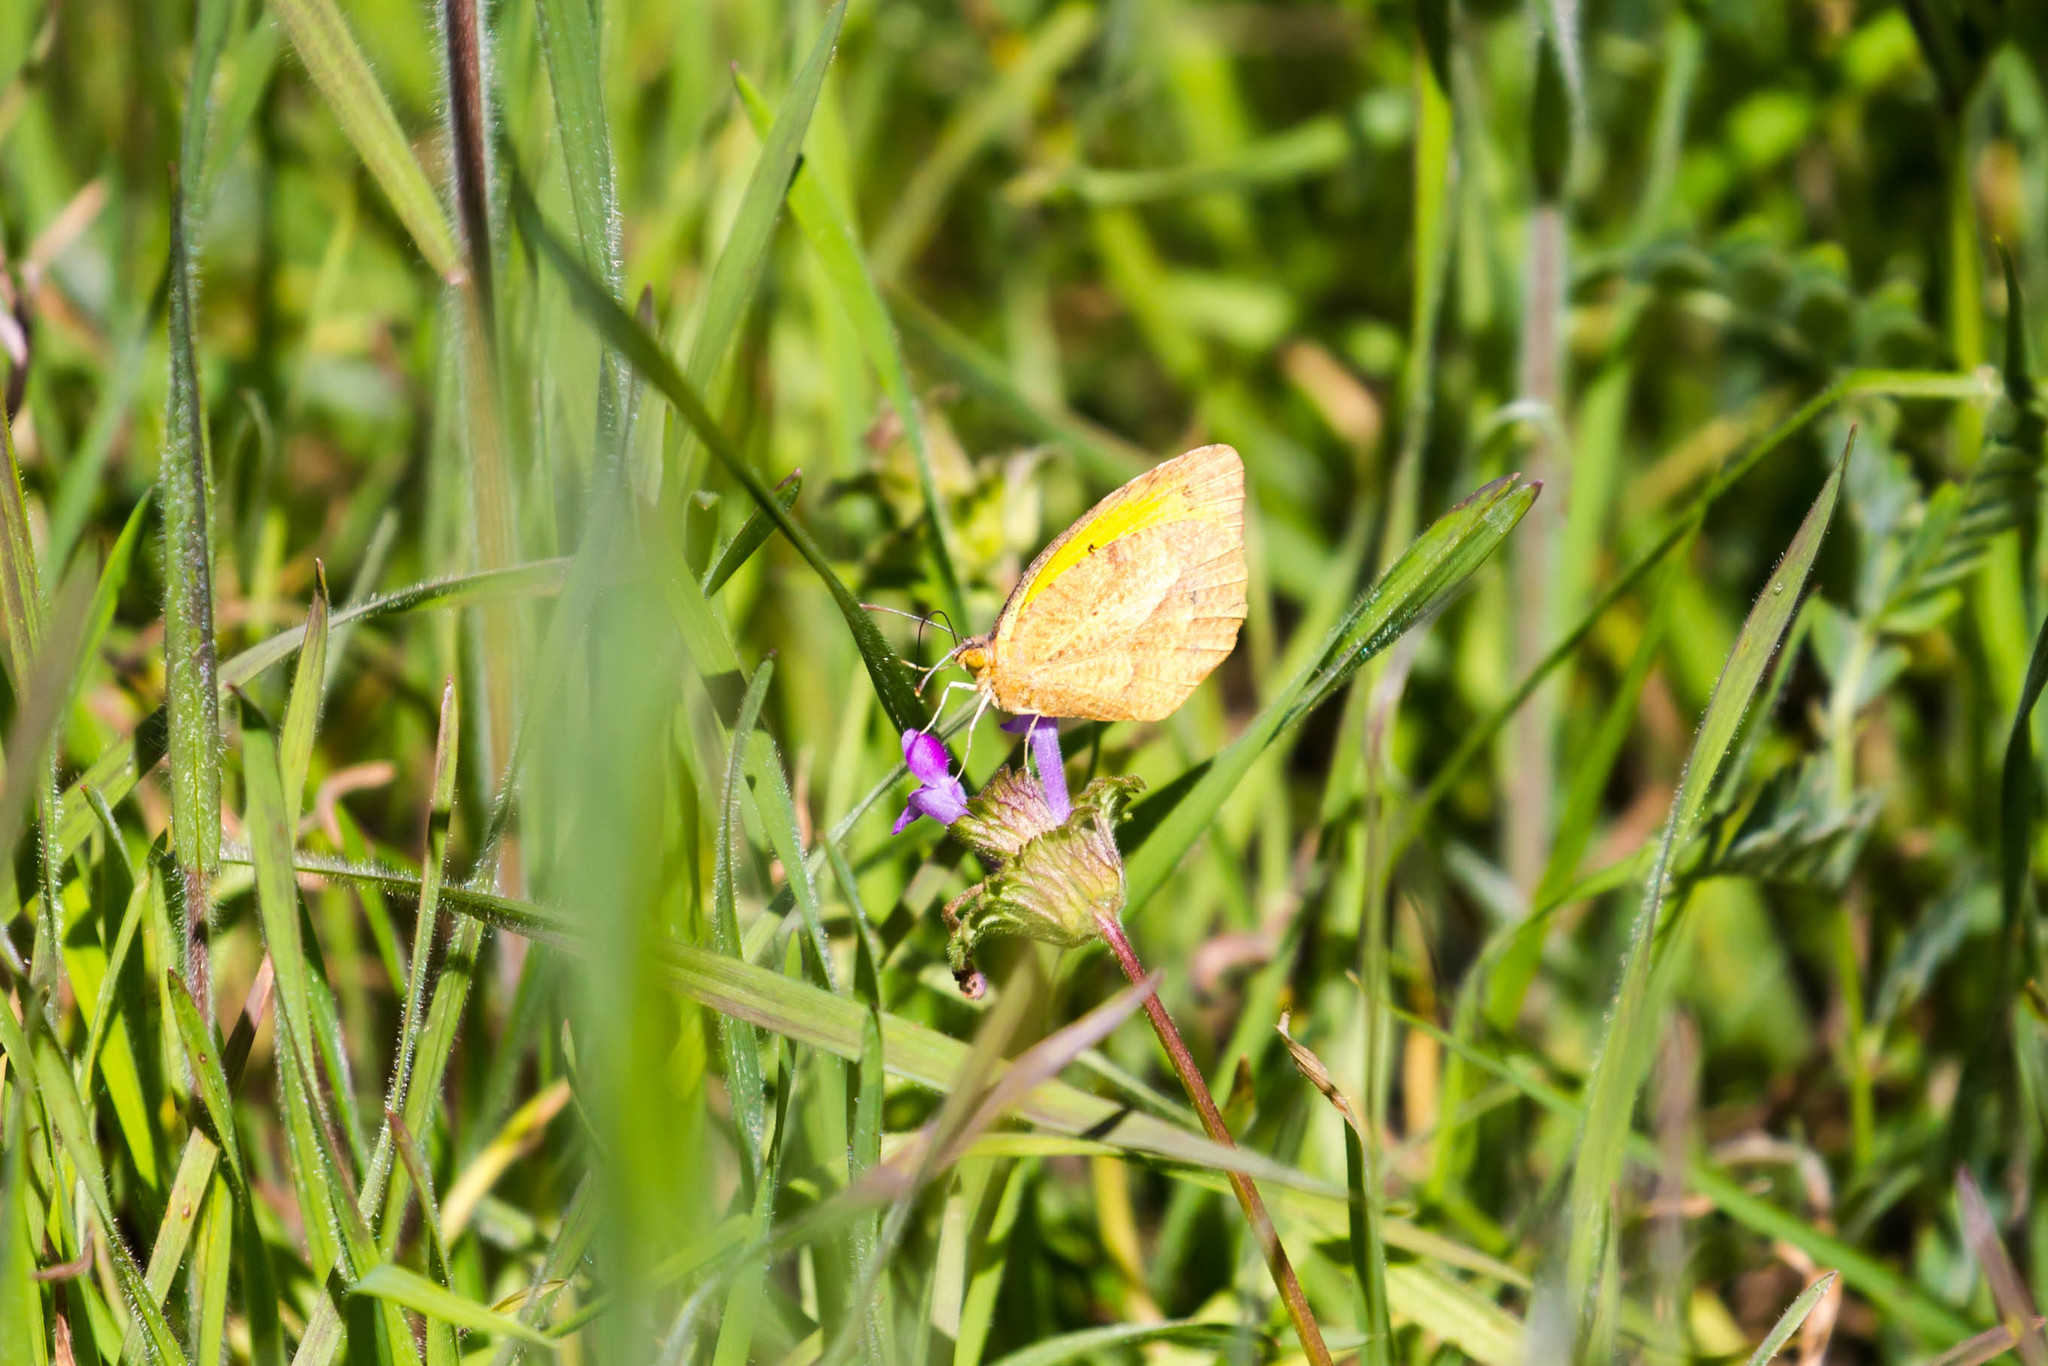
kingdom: Animalia
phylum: Arthropoda
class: Insecta
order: Lepidoptera
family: Pieridae
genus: Abaeis
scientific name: Abaeis nicippe
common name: Sleepy orange
